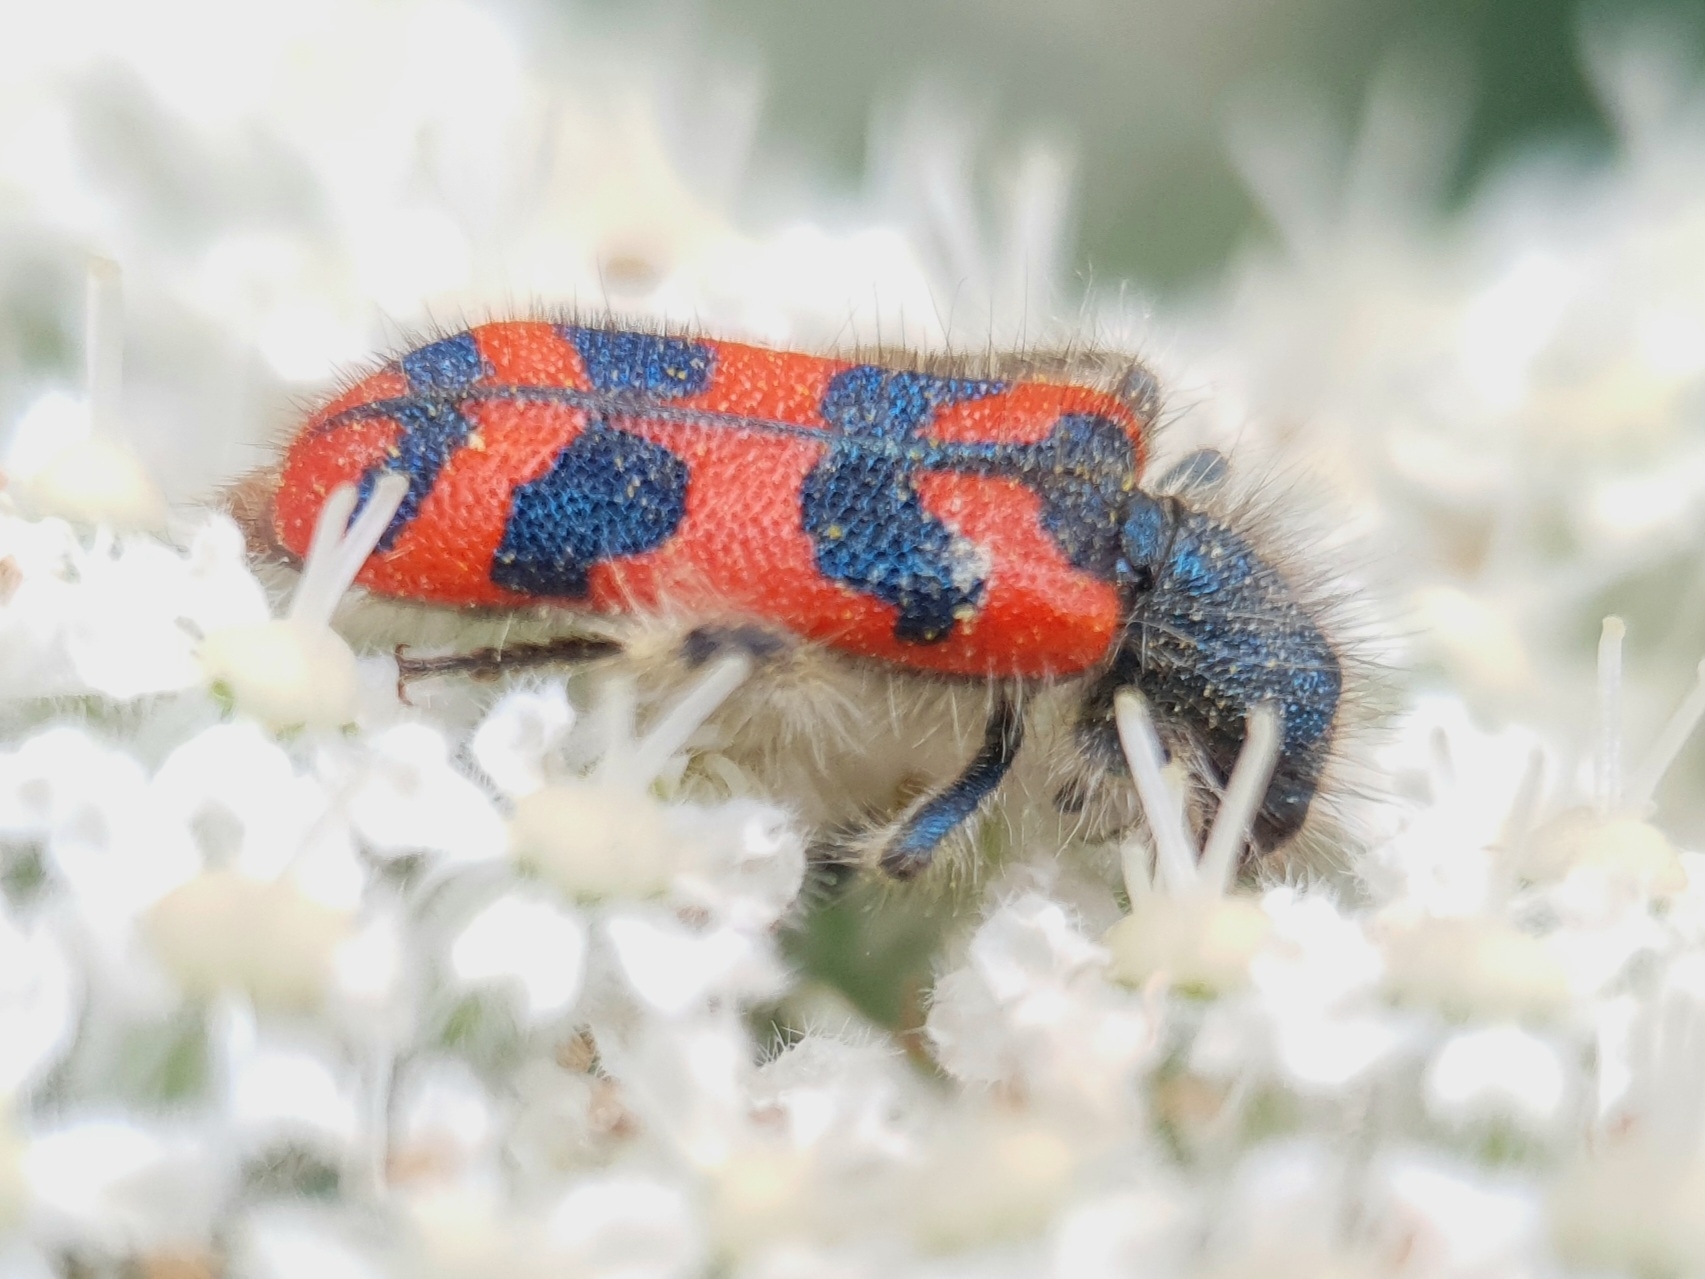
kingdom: Animalia
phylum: Arthropoda
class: Insecta
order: Coleoptera
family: Cleridae
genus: Trichodes
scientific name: Trichodes umbellatarum
